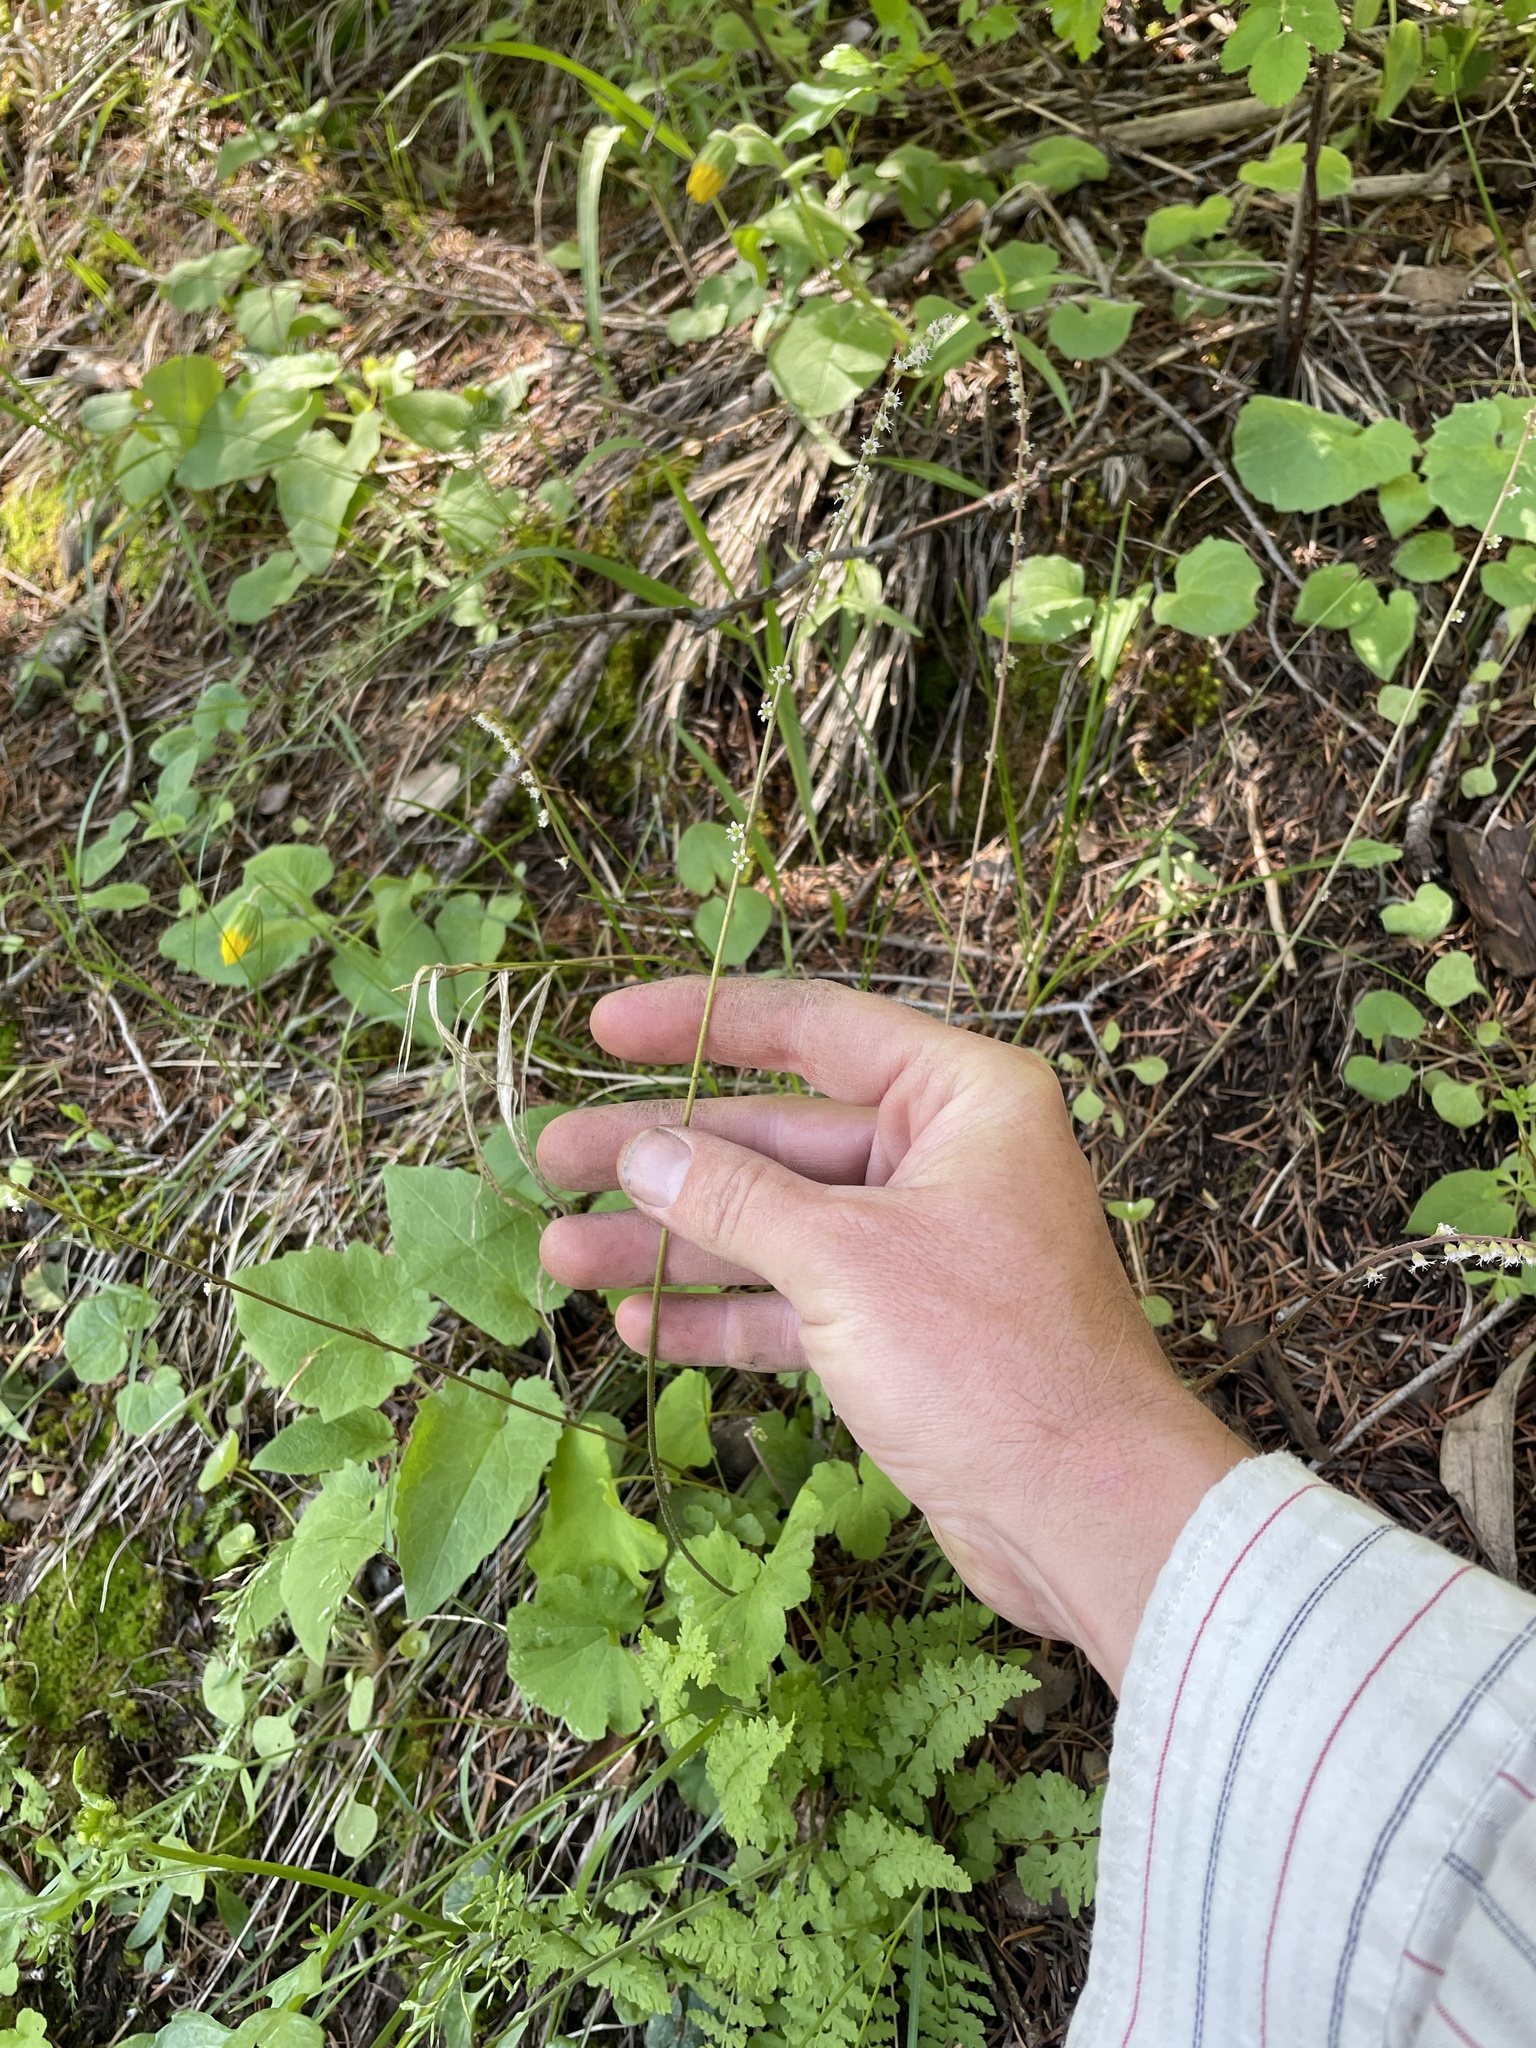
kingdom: Plantae
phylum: Tracheophyta
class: Magnoliopsida
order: Saxifragales
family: Saxifragaceae
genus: Ozomelis
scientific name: Ozomelis stauropetala
